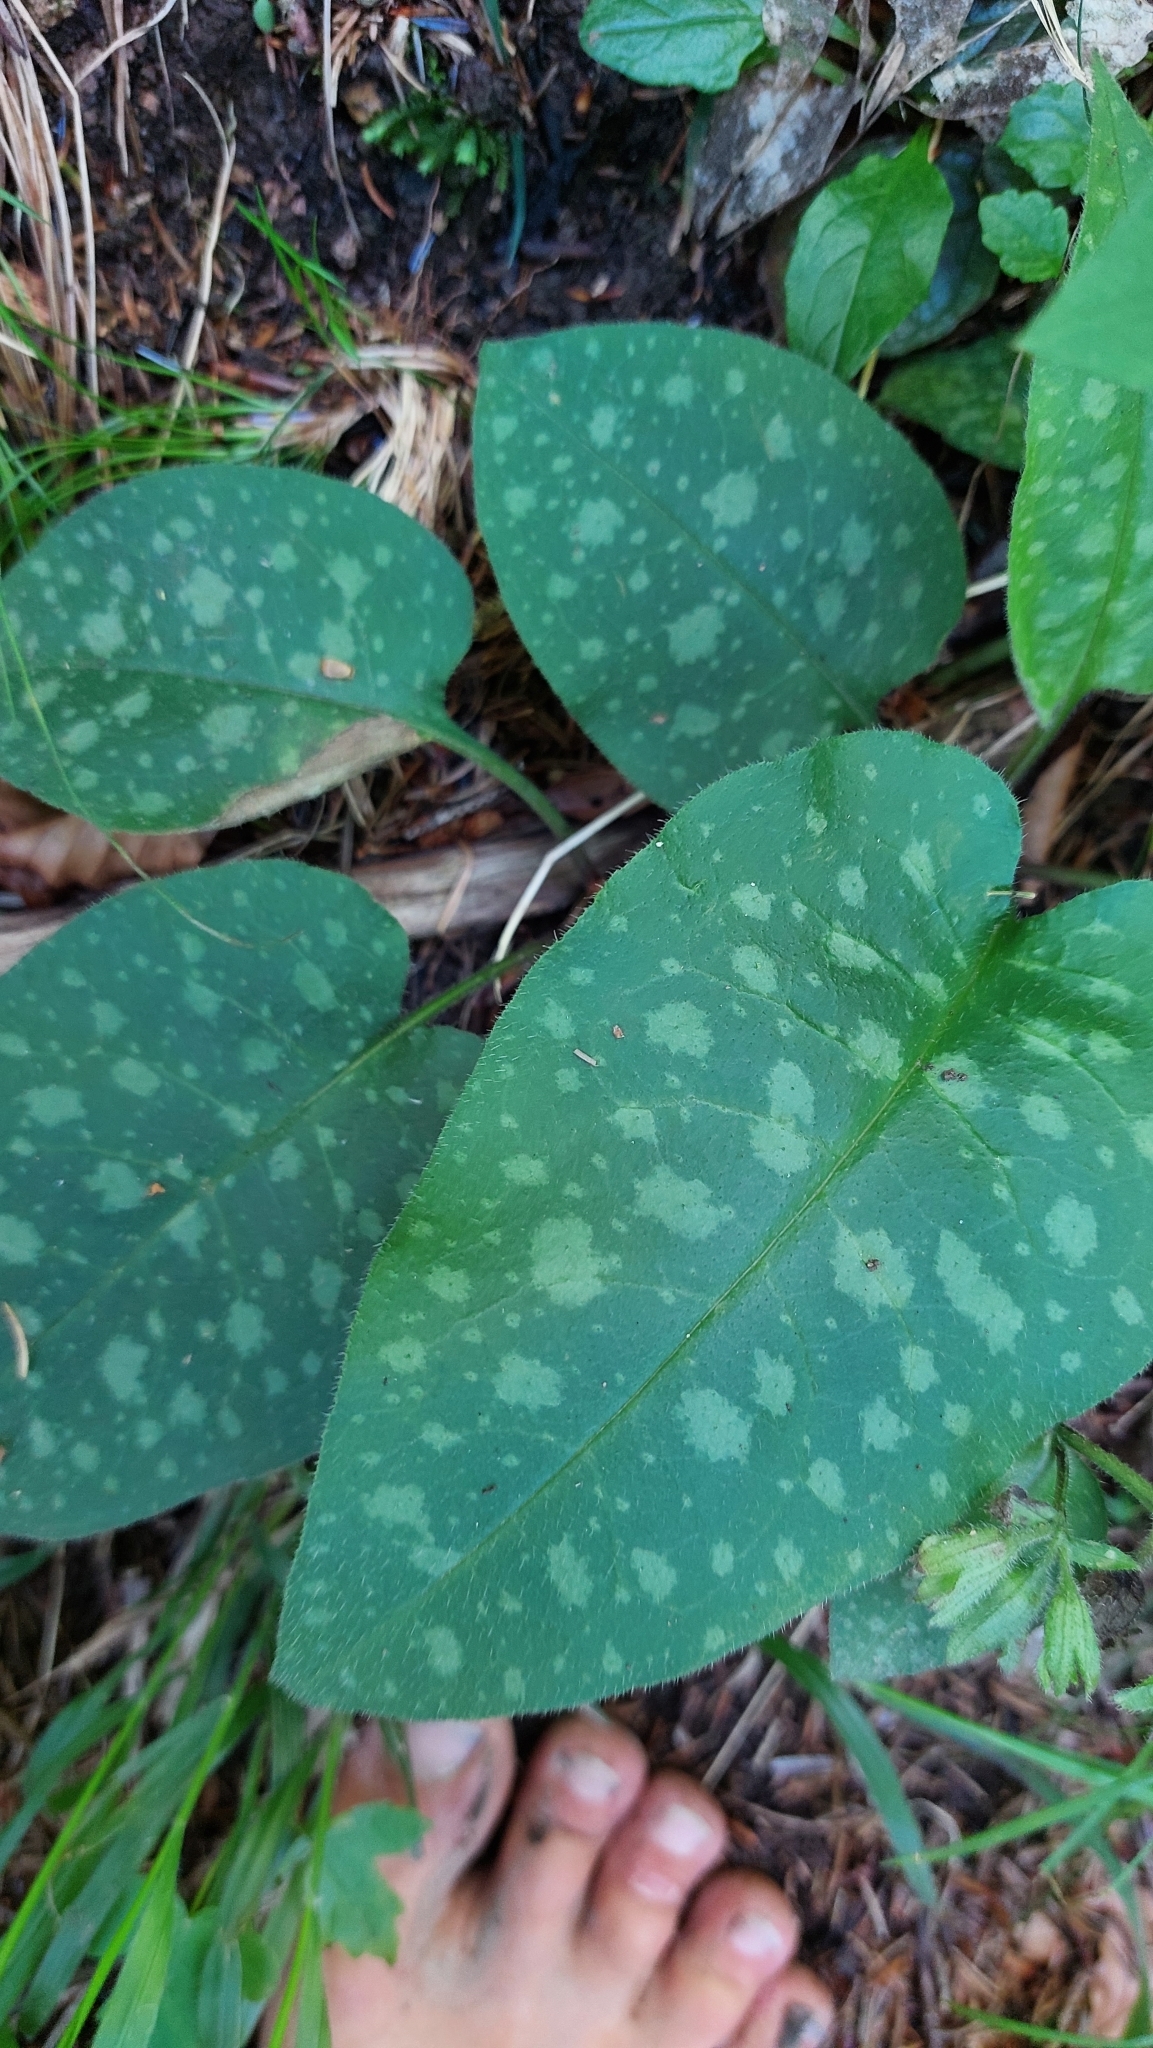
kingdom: Plantae
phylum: Tracheophyta
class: Magnoliopsida
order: Boraginales
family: Boraginaceae
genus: Pulmonaria
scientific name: Pulmonaria officinalis
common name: Lungwort
